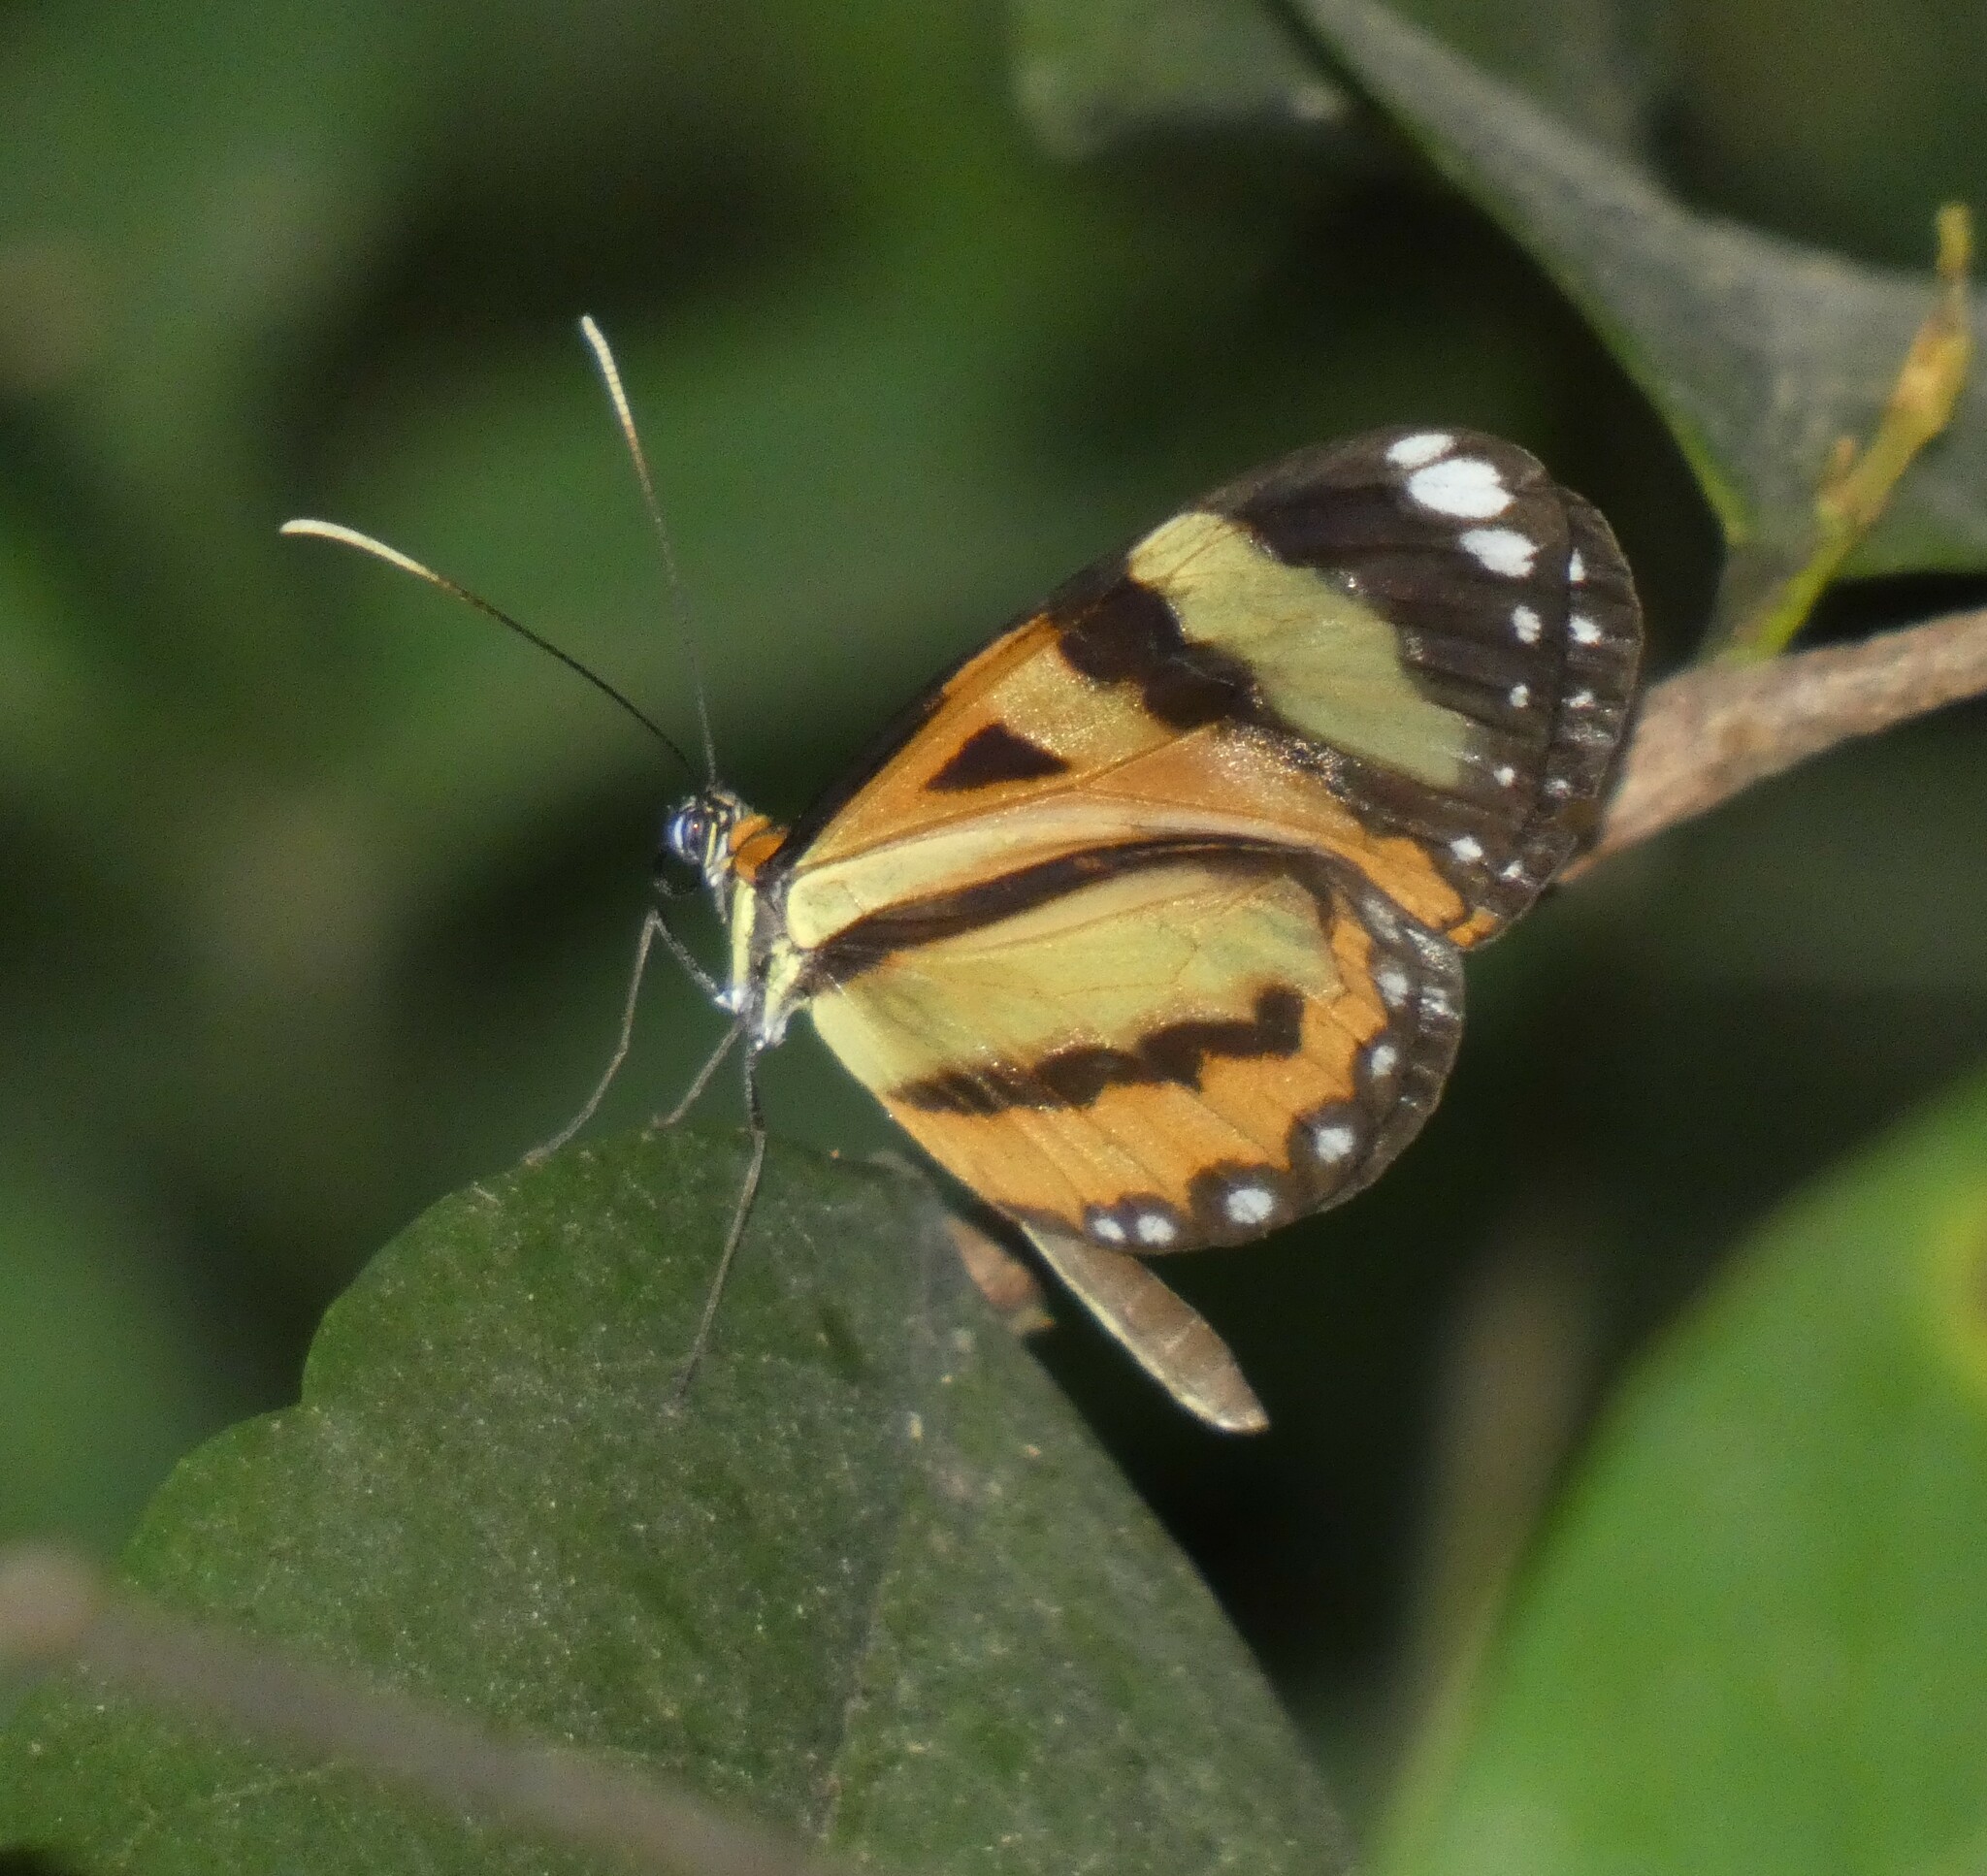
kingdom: Animalia
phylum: Arthropoda
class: Insecta
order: Lepidoptera
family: Nymphalidae
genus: Hypothyris
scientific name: Hypothyris ninonia
